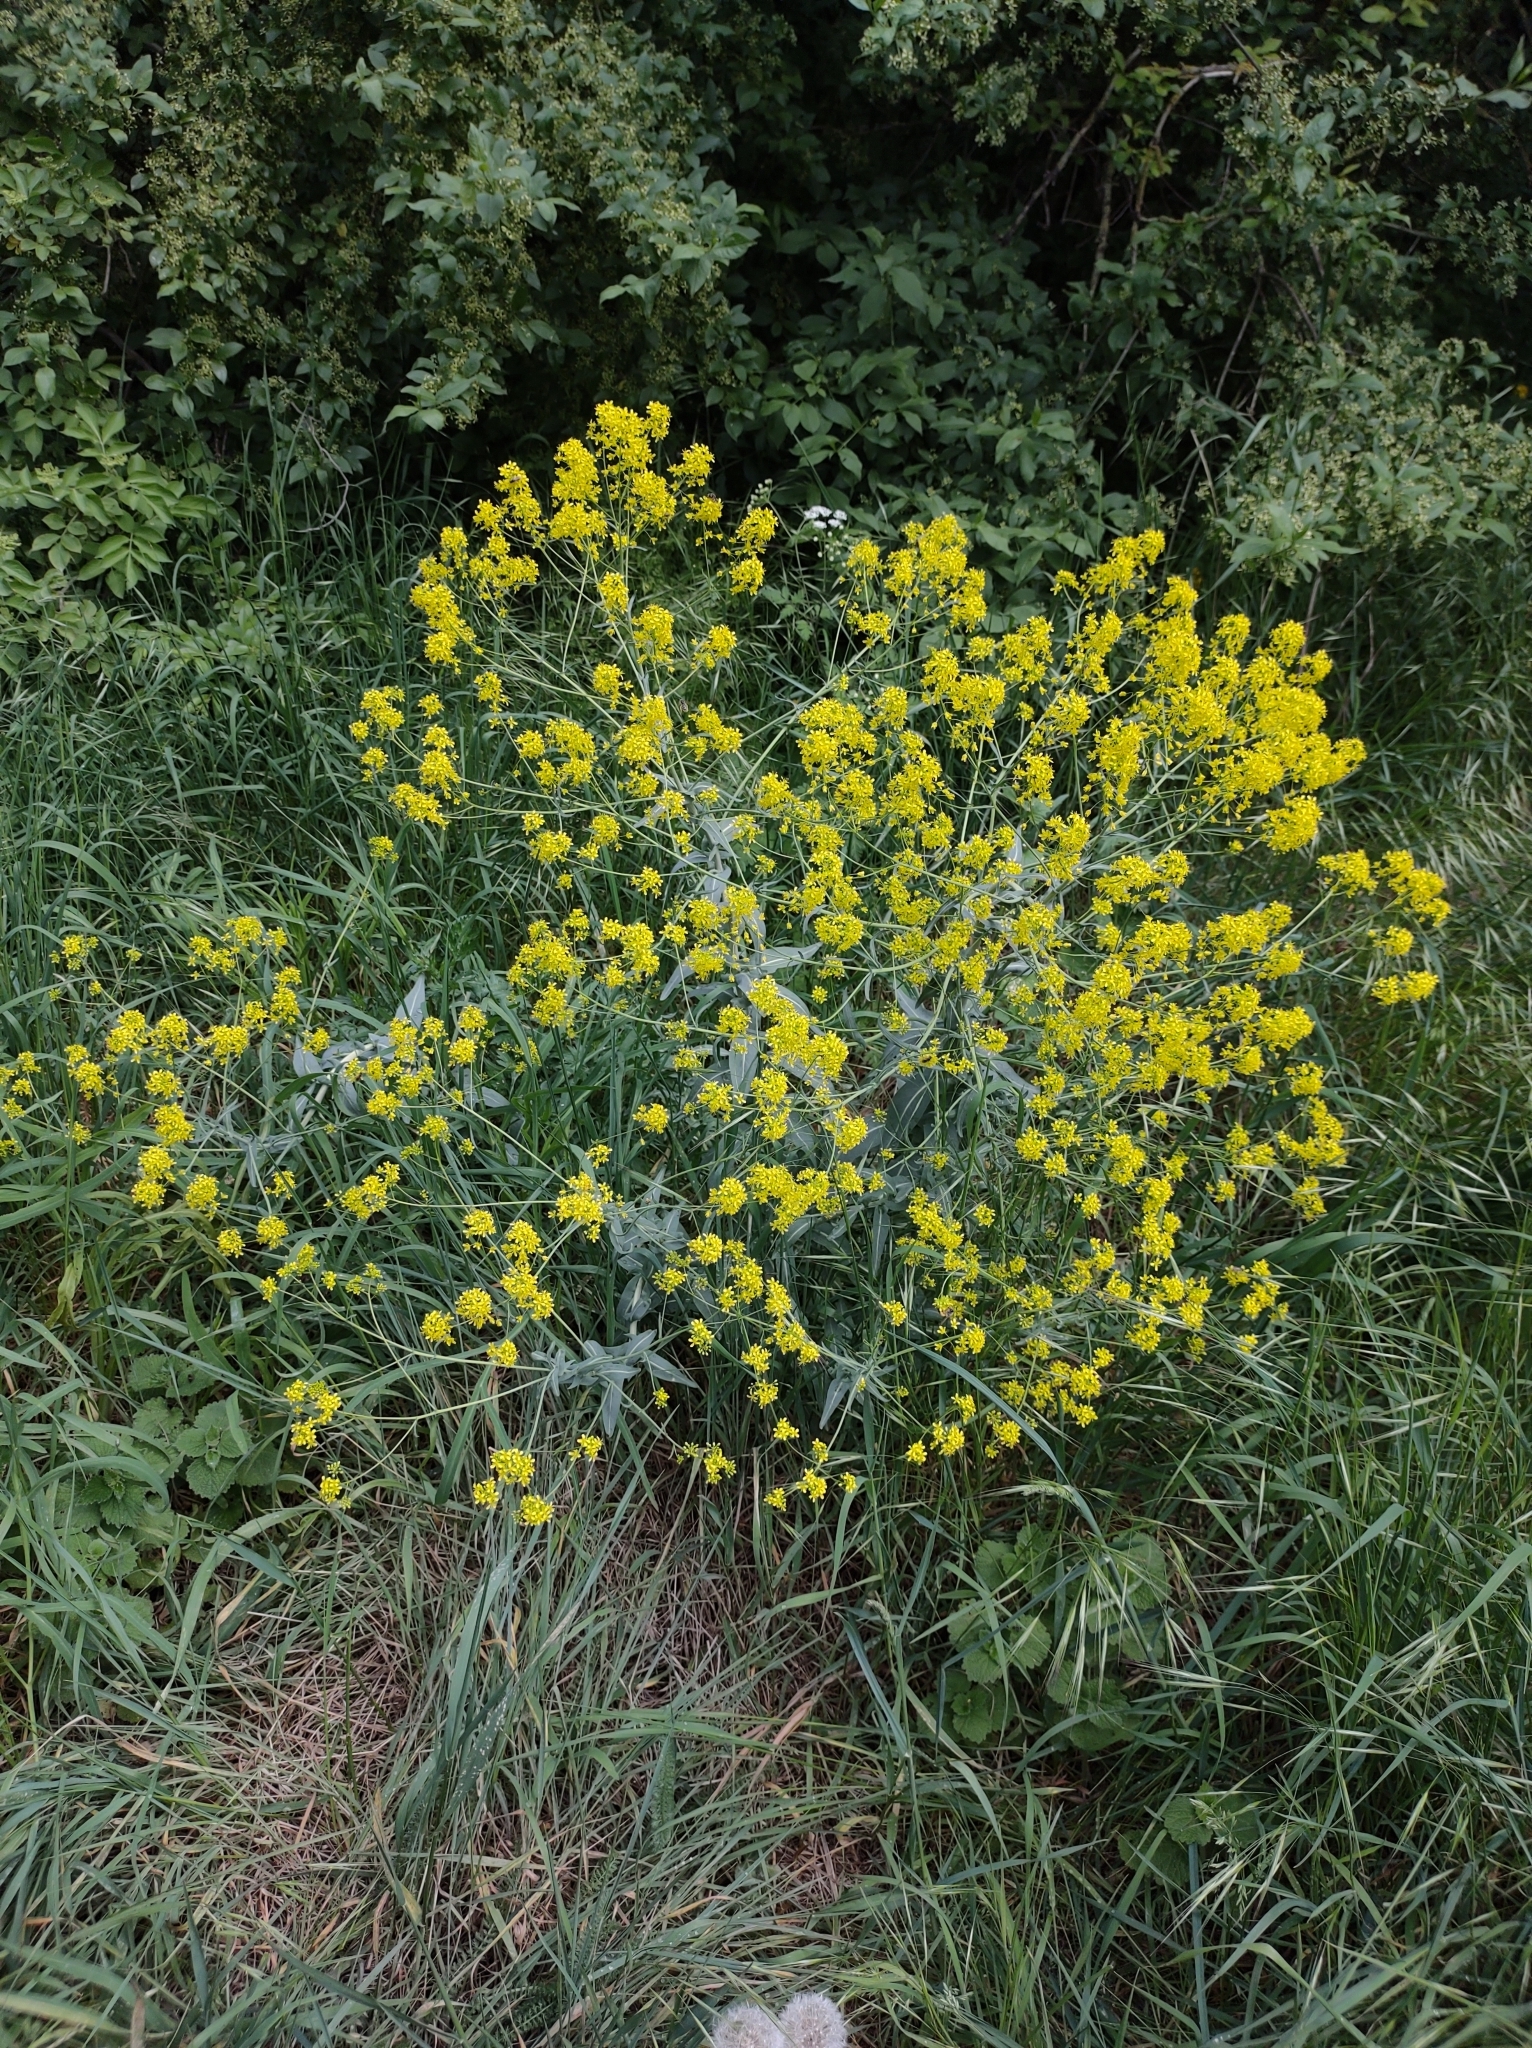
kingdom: Plantae
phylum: Tracheophyta
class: Magnoliopsida
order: Brassicales
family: Brassicaceae
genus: Isatis
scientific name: Isatis tinctoria
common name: Woad
